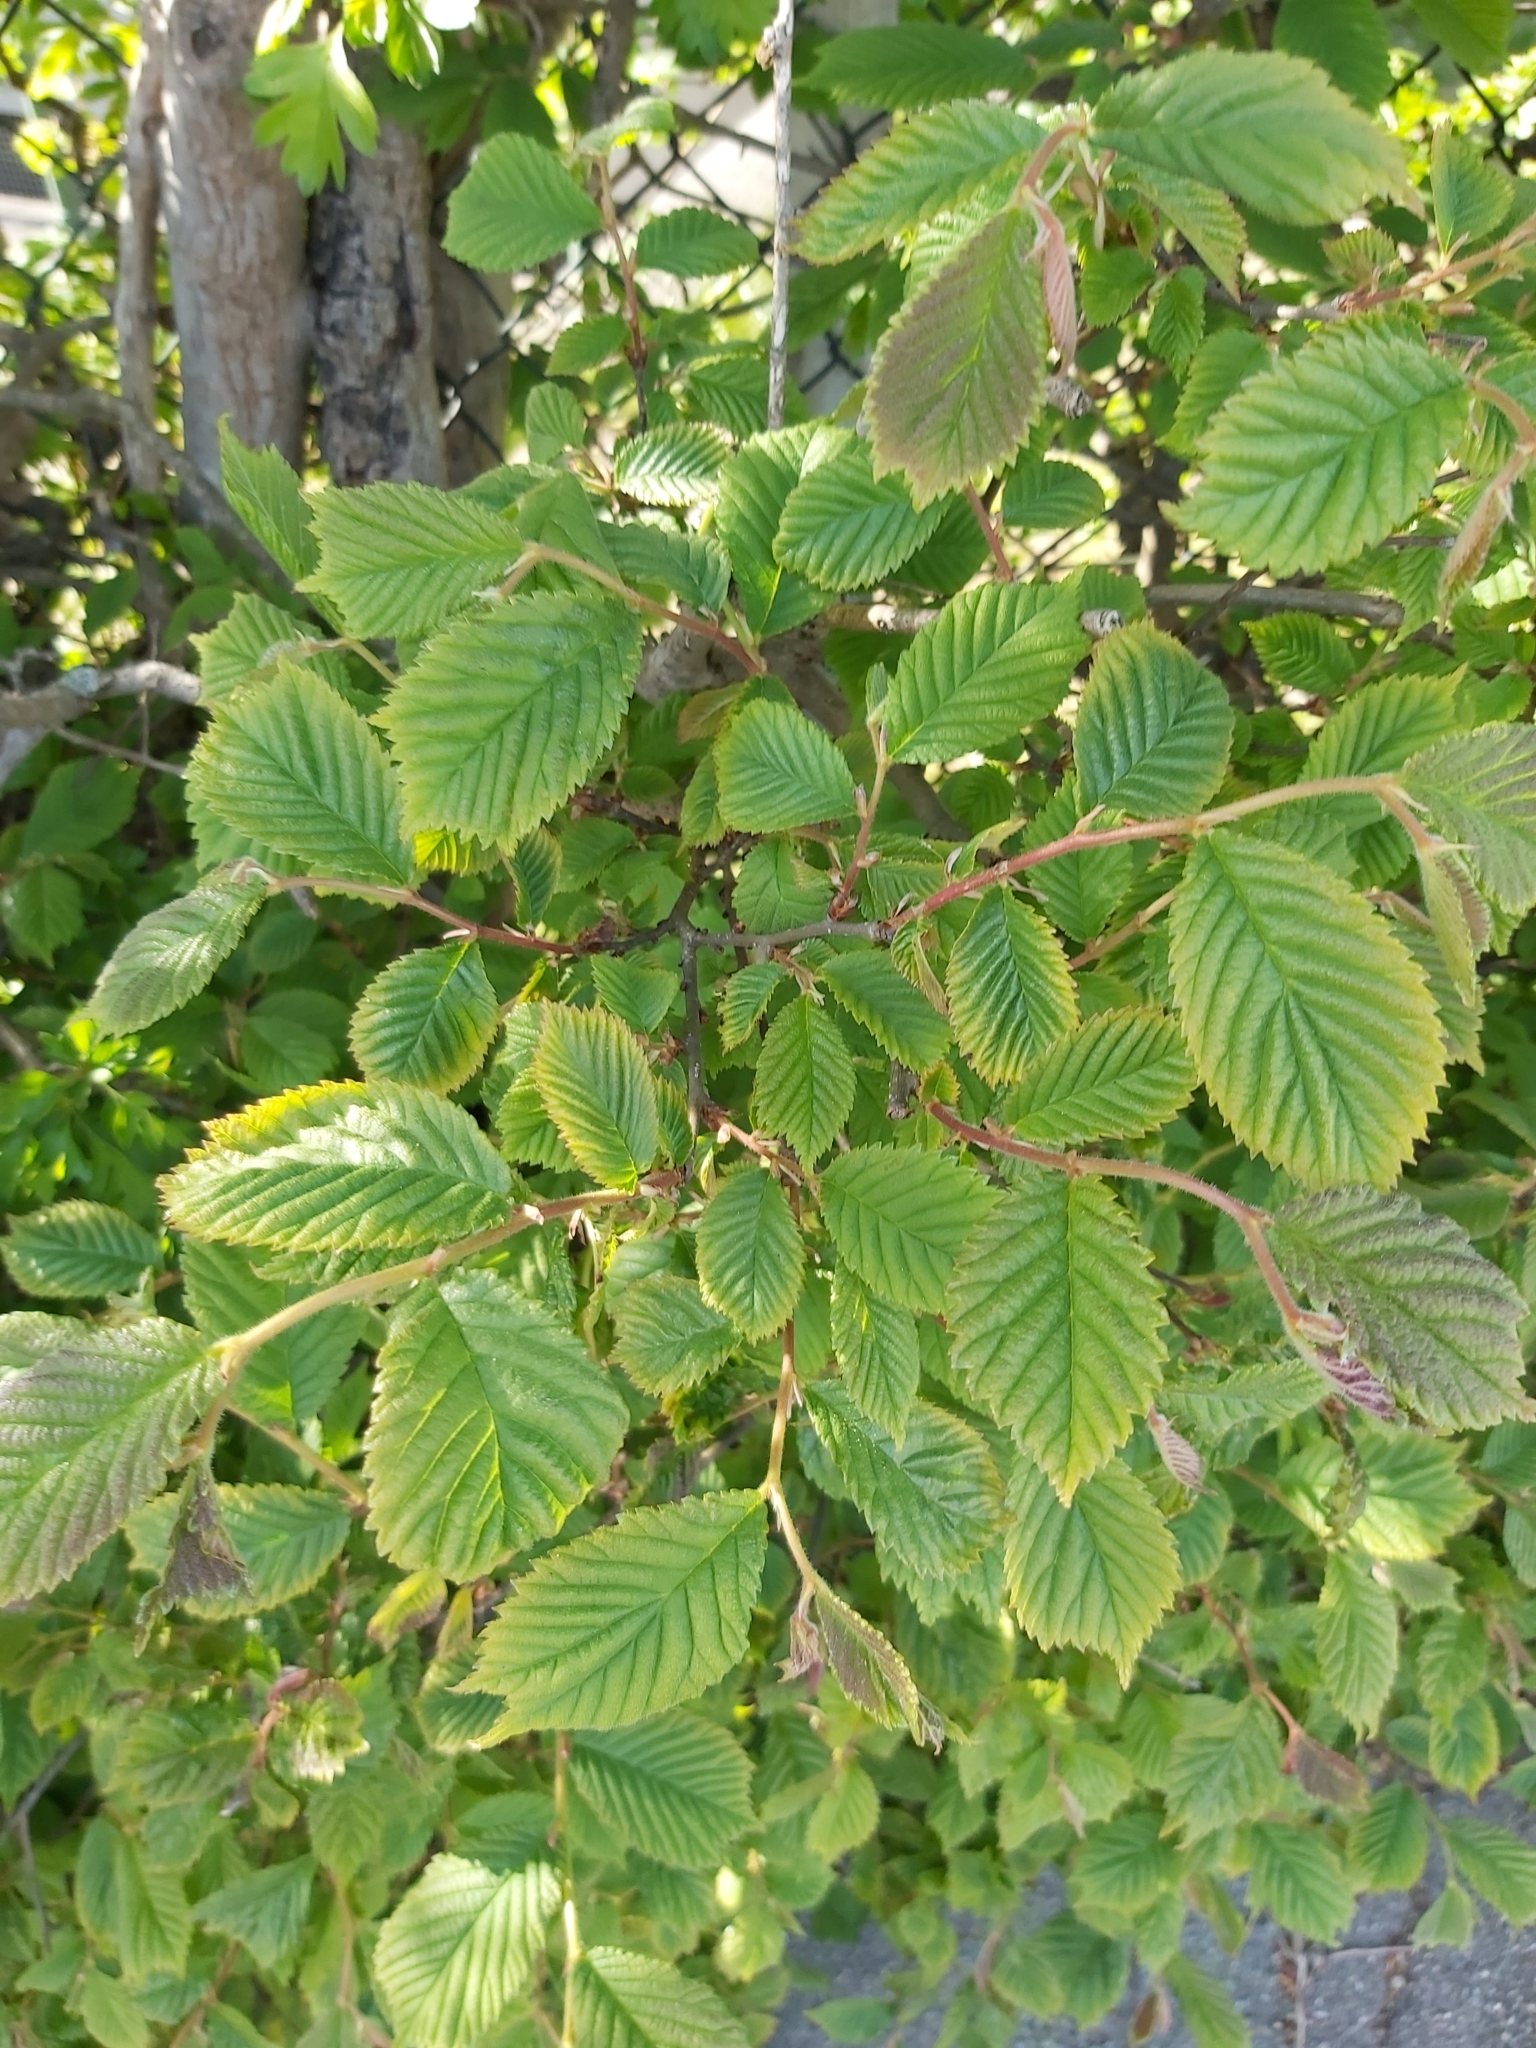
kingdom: Plantae
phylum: Tracheophyta
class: Magnoliopsida
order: Fagales
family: Betulaceae
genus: Carpinus
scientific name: Carpinus betulus
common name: Hornbeam
